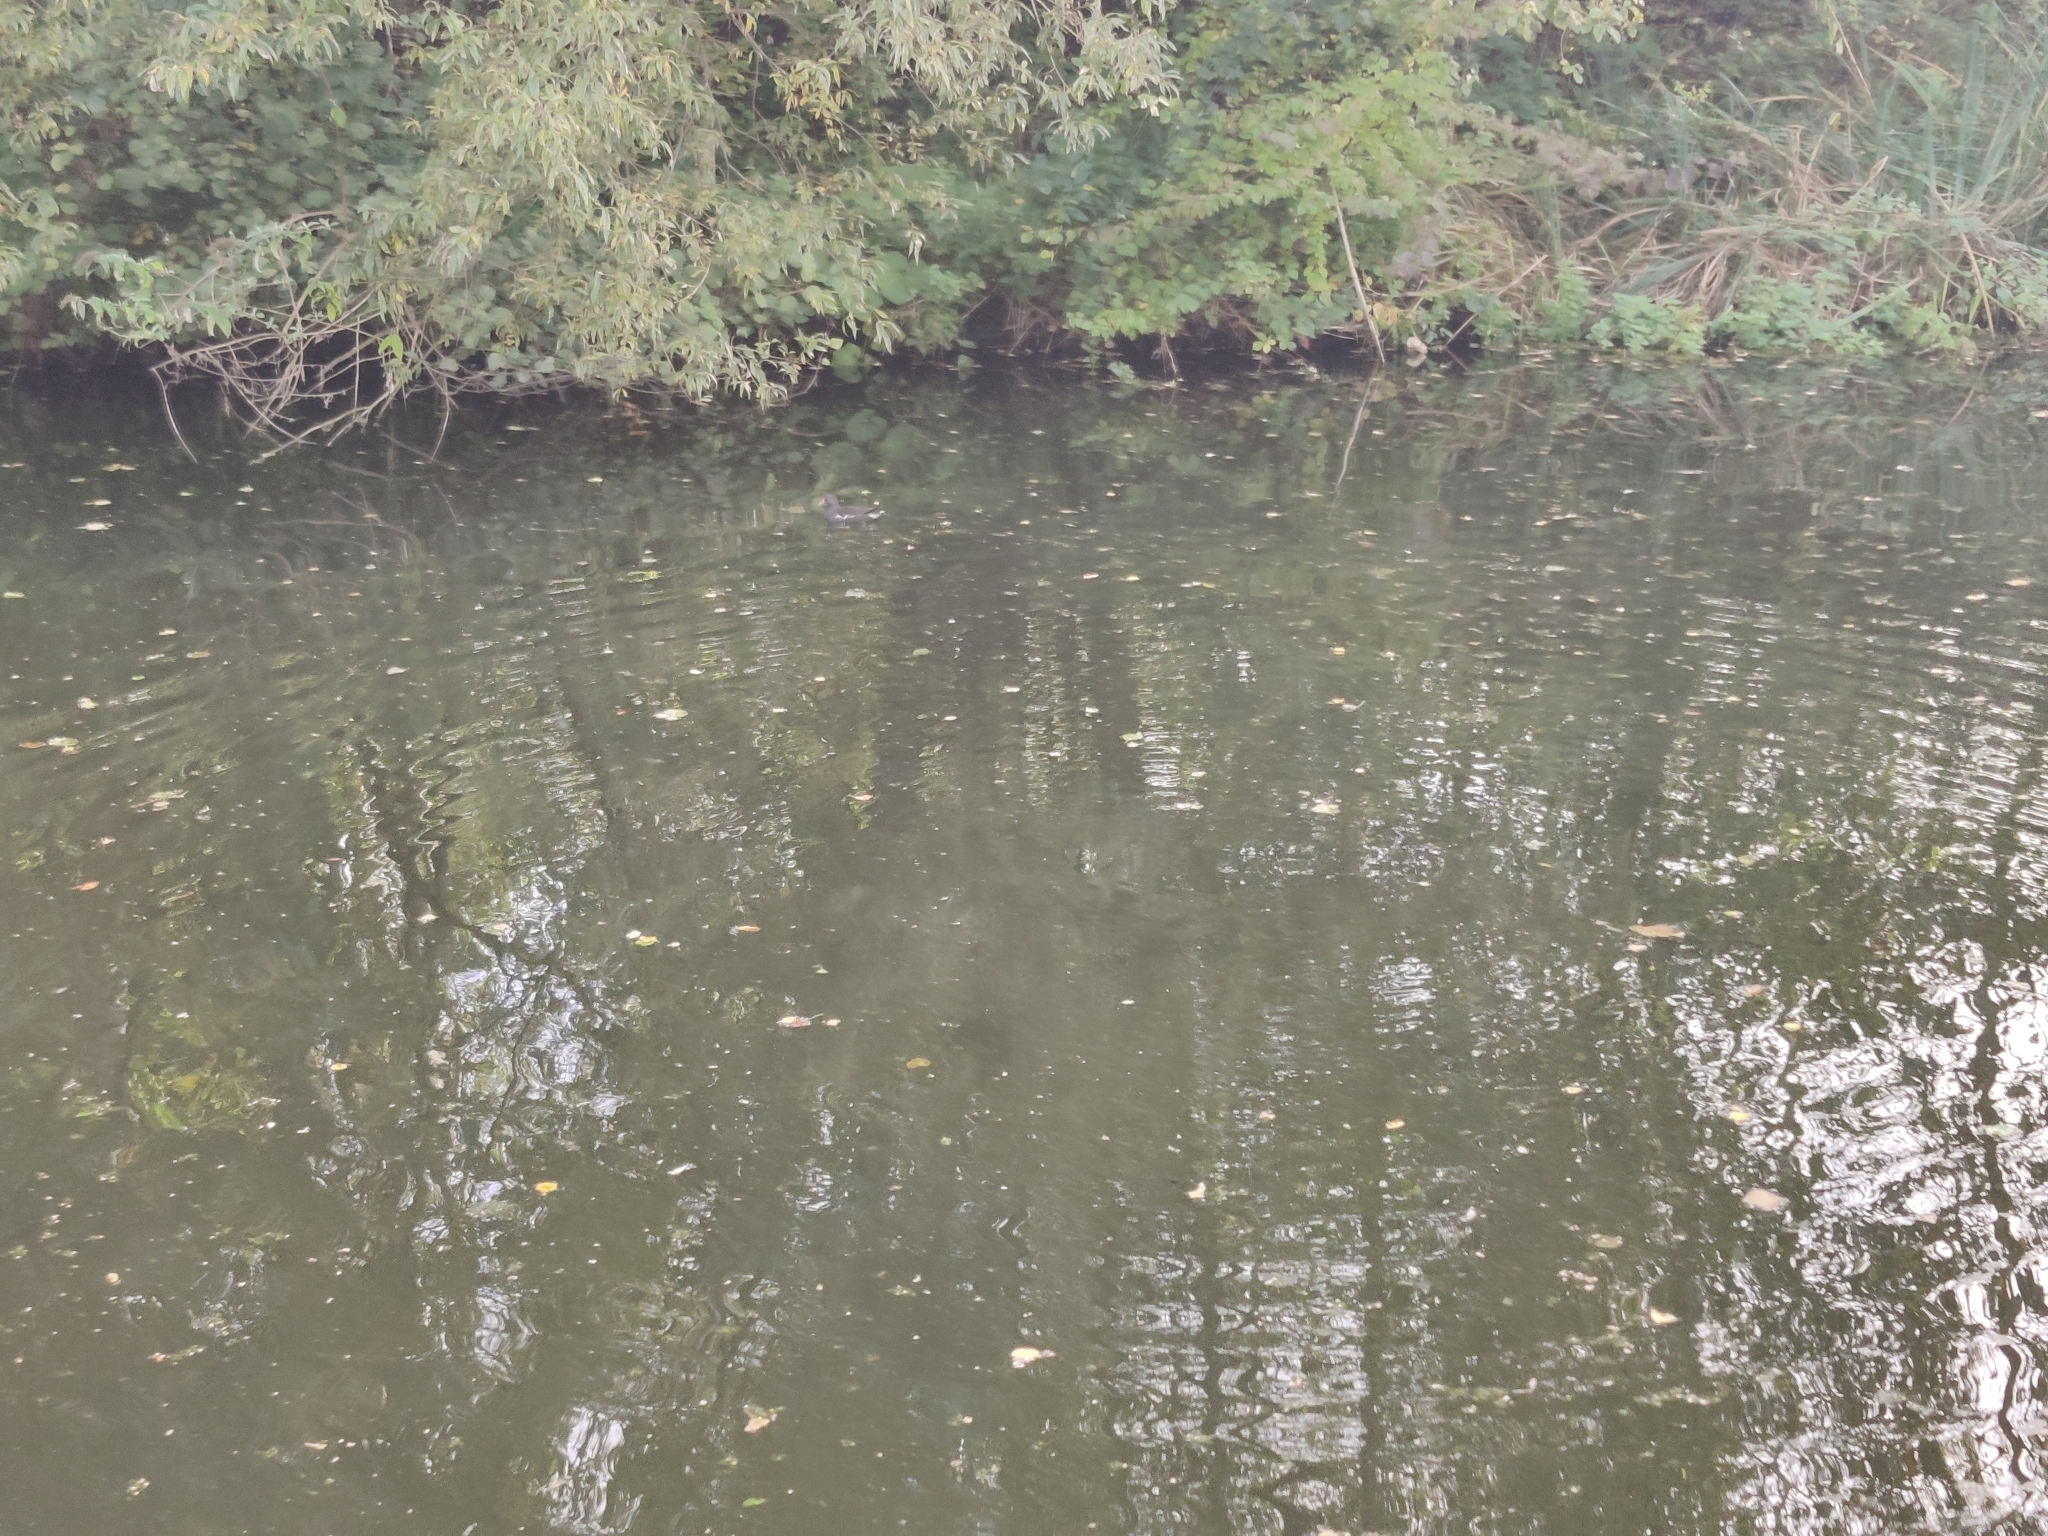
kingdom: Animalia
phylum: Chordata
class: Aves
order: Gruiformes
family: Rallidae
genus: Gallinula
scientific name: Gallinula chloropus
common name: Common moorhen
